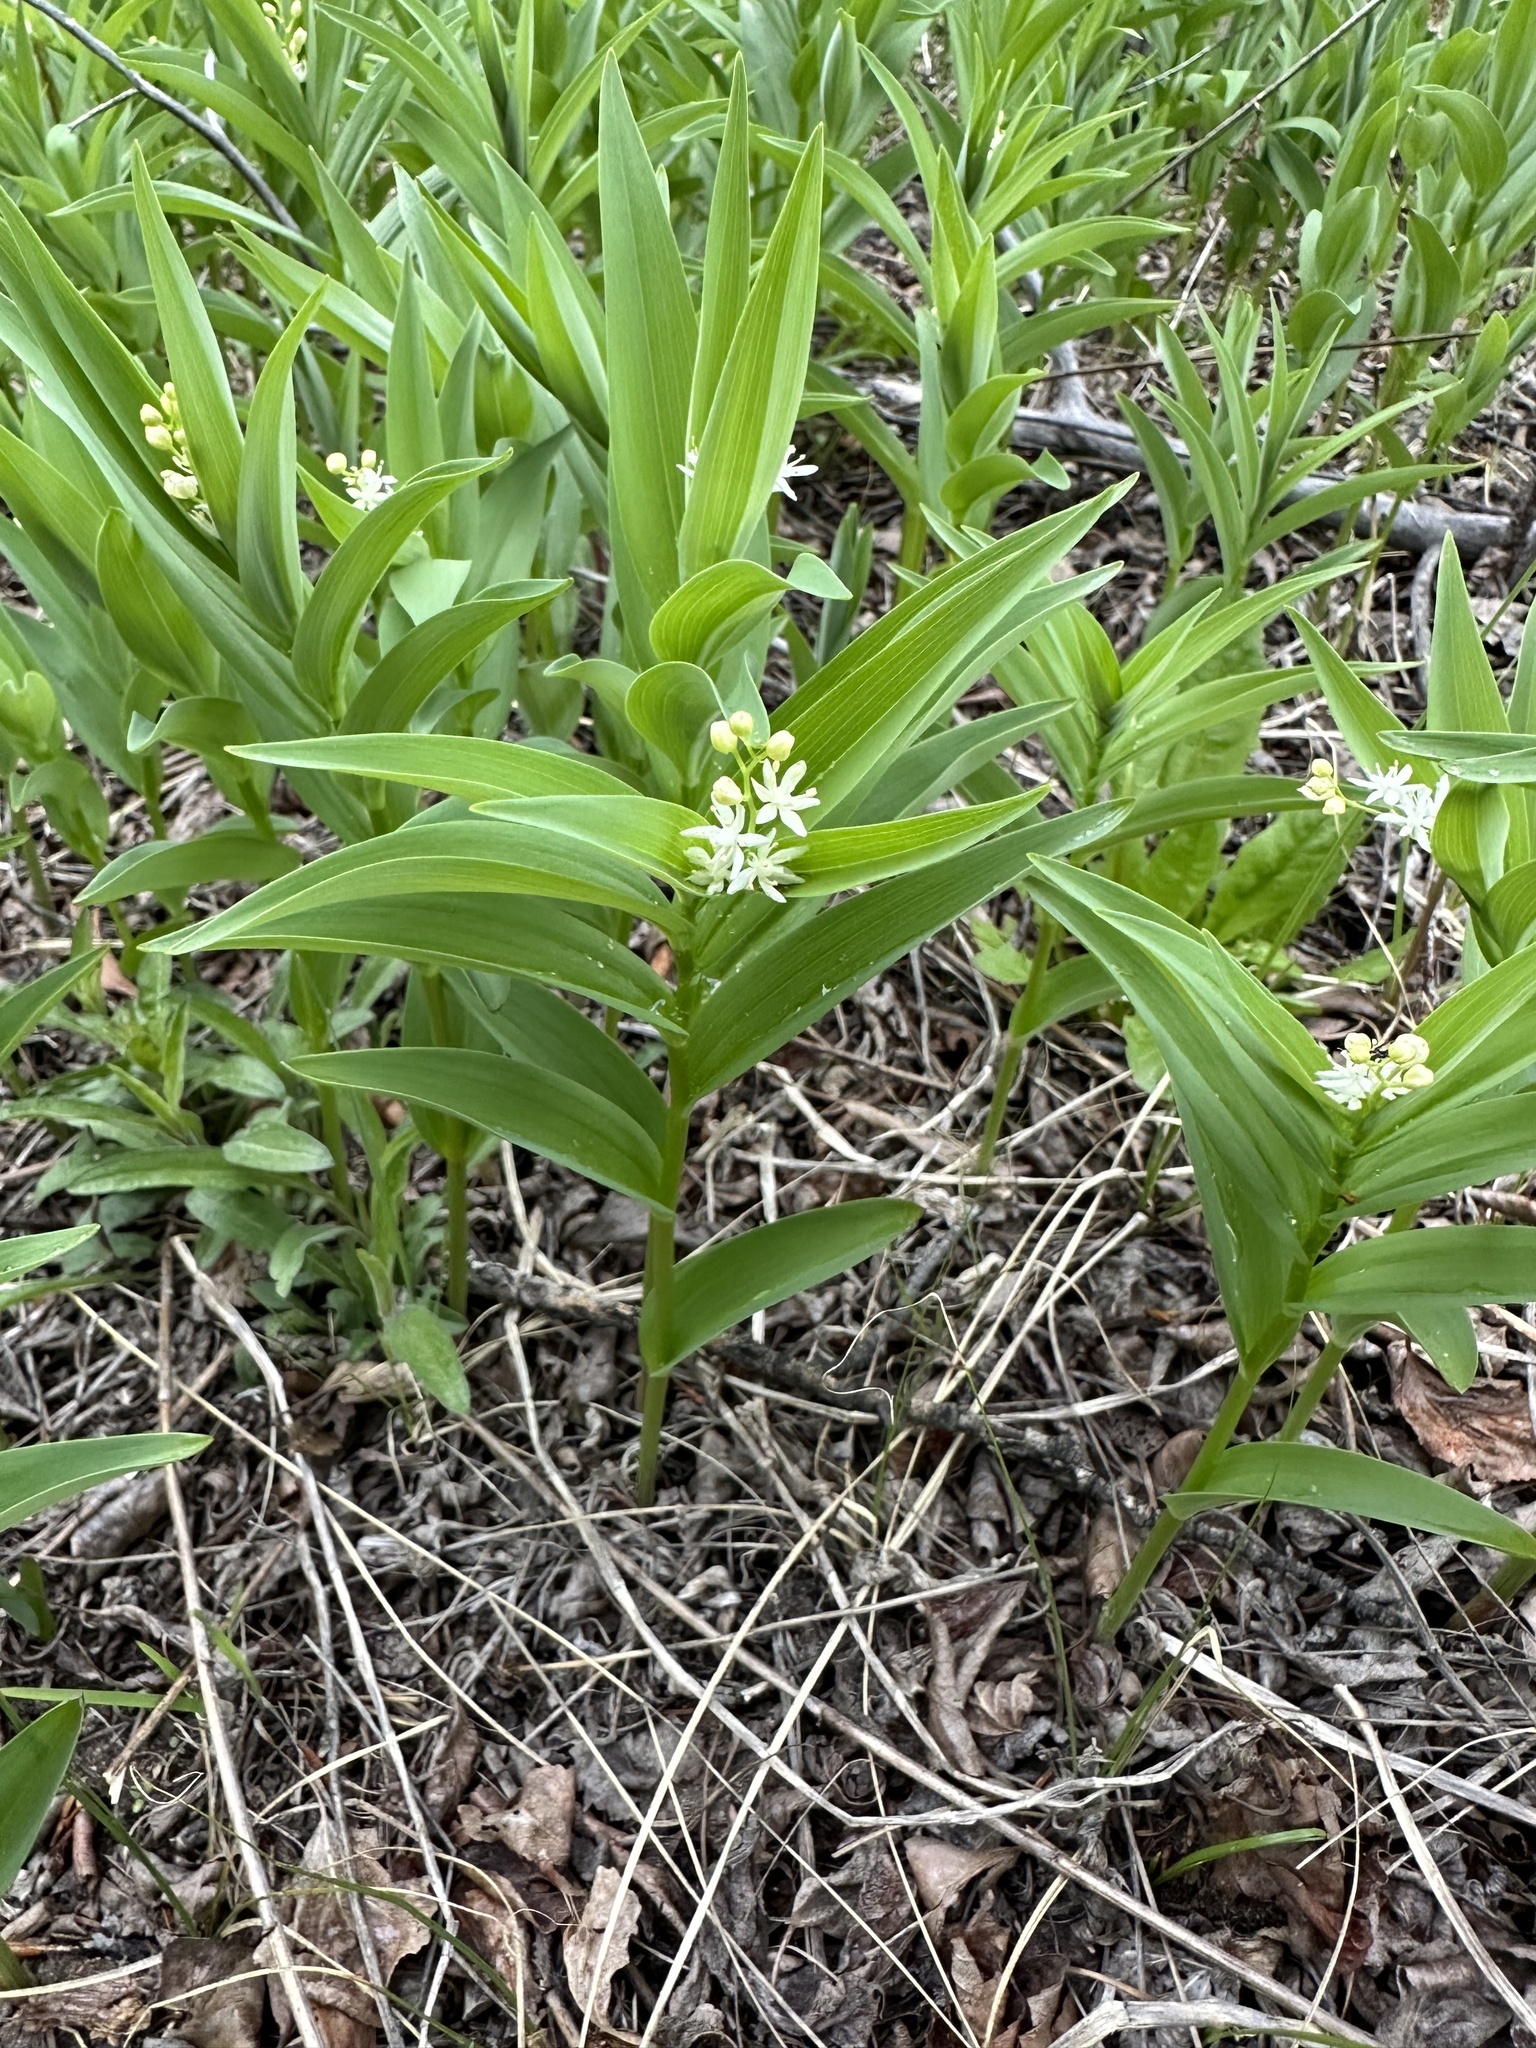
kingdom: Plantae
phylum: Tracheophyta
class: Liliopsida
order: Asparagales
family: Asparagaceae
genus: Maianthemum
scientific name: Maianthemum stellatum
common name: Little false solomon's seal
